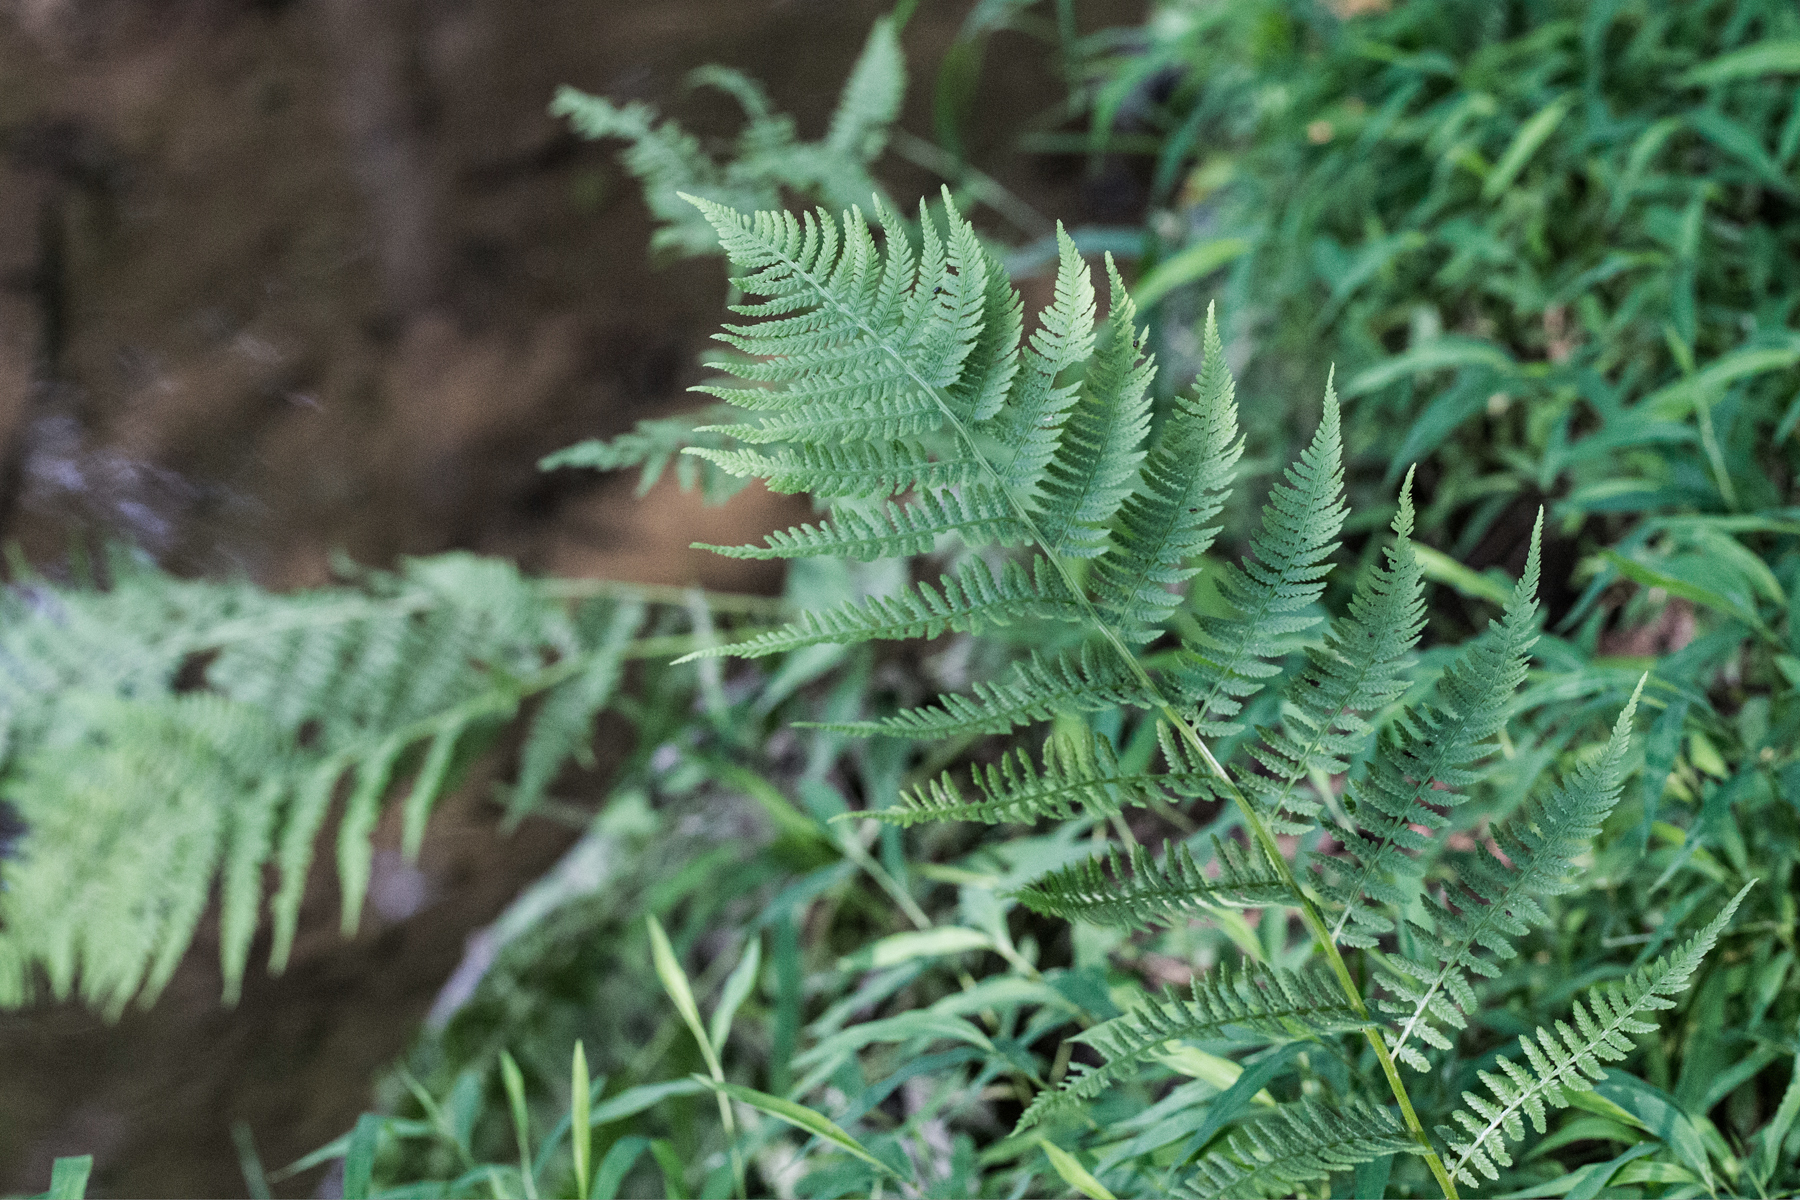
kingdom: Plantae
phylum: Tracheophyta
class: Polypodiopsida
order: Polypodiales
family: Athyriaceae
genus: Athyrium
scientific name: Athyrium angustum
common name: Northern lady fern
